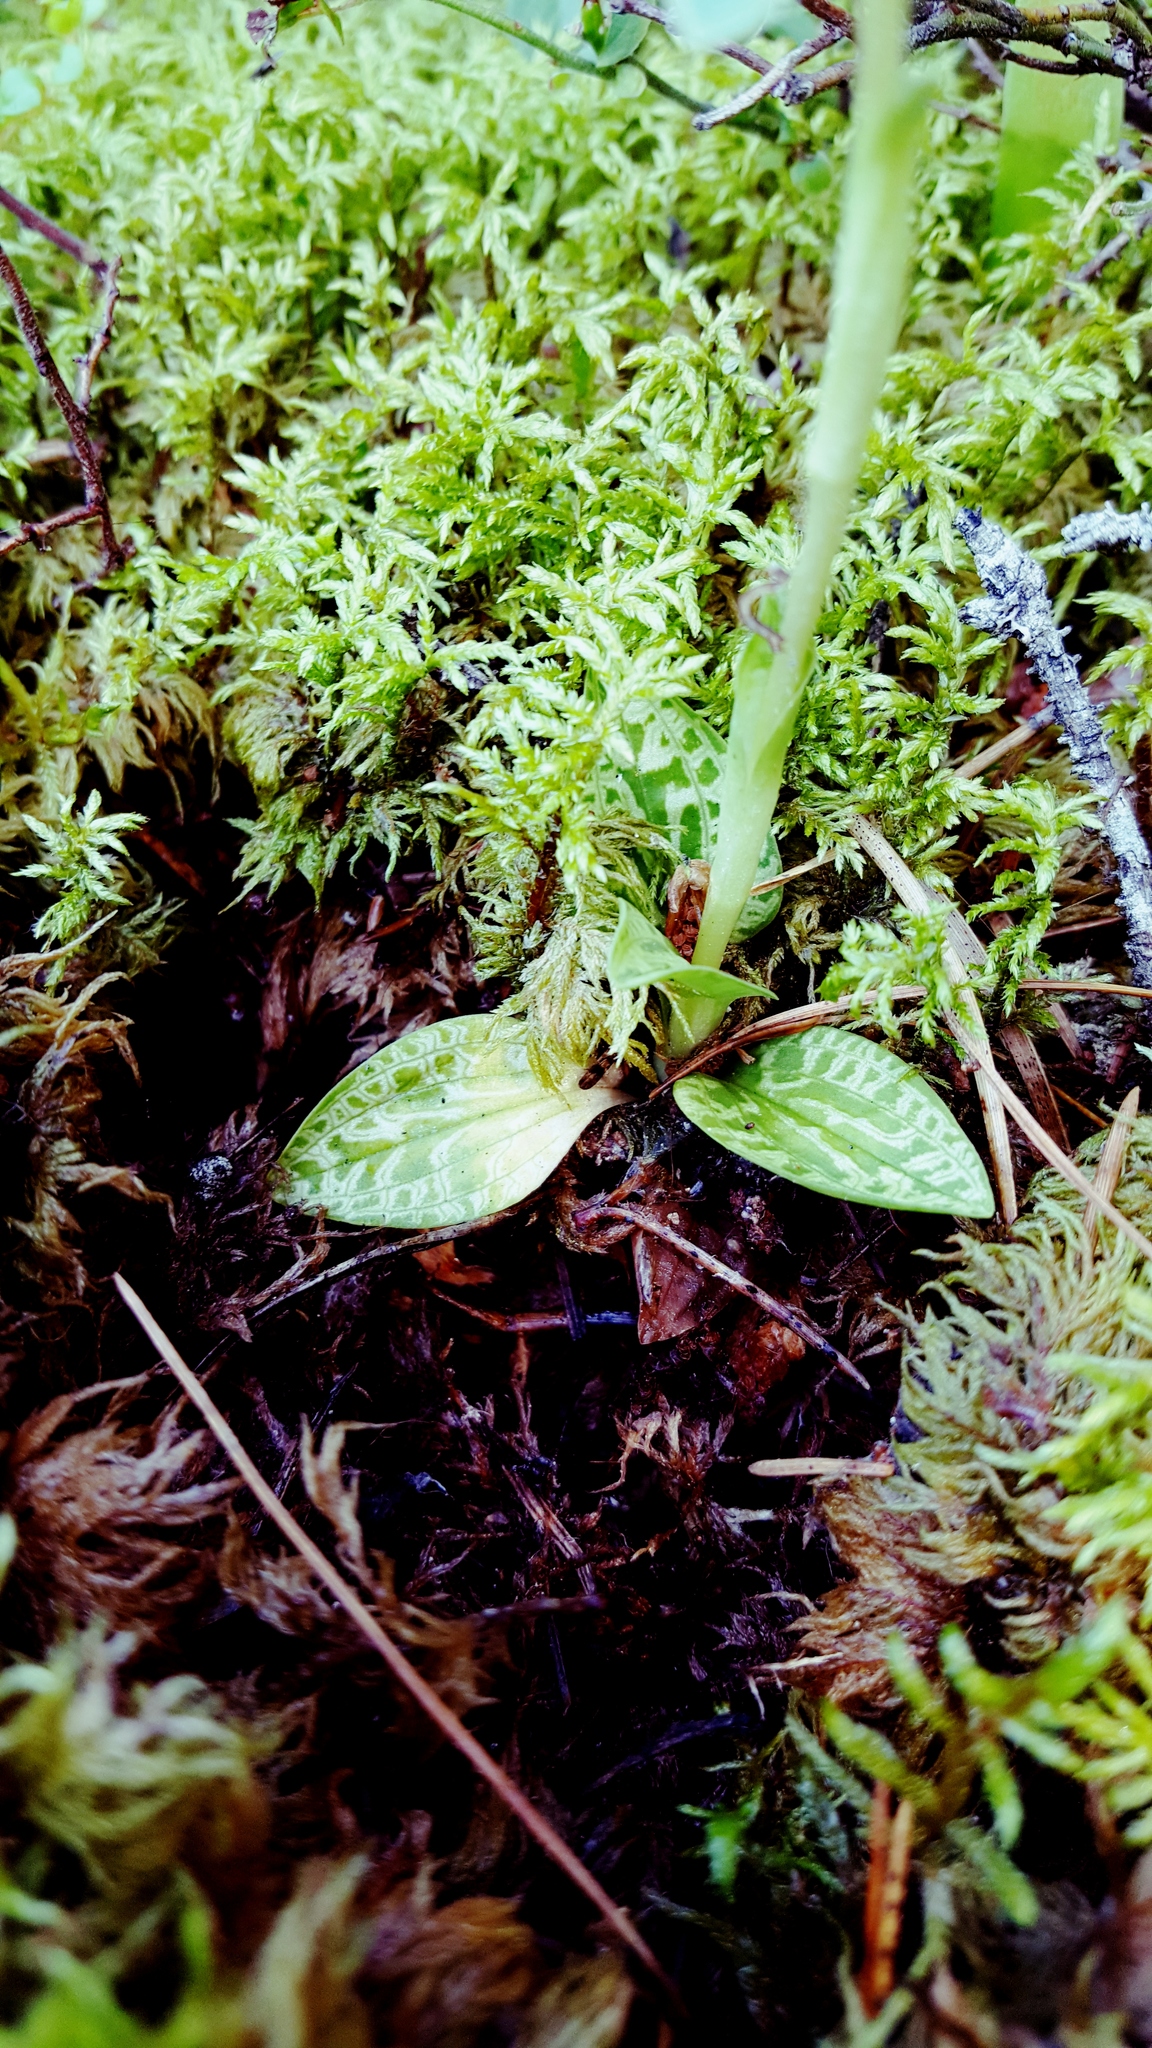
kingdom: Plantae
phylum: Tracheophyta
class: Liliopsida
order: Asparagales
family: Orchidaceae
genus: Goodyera
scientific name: Goodyera repens
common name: Creeping lady's-tresses
